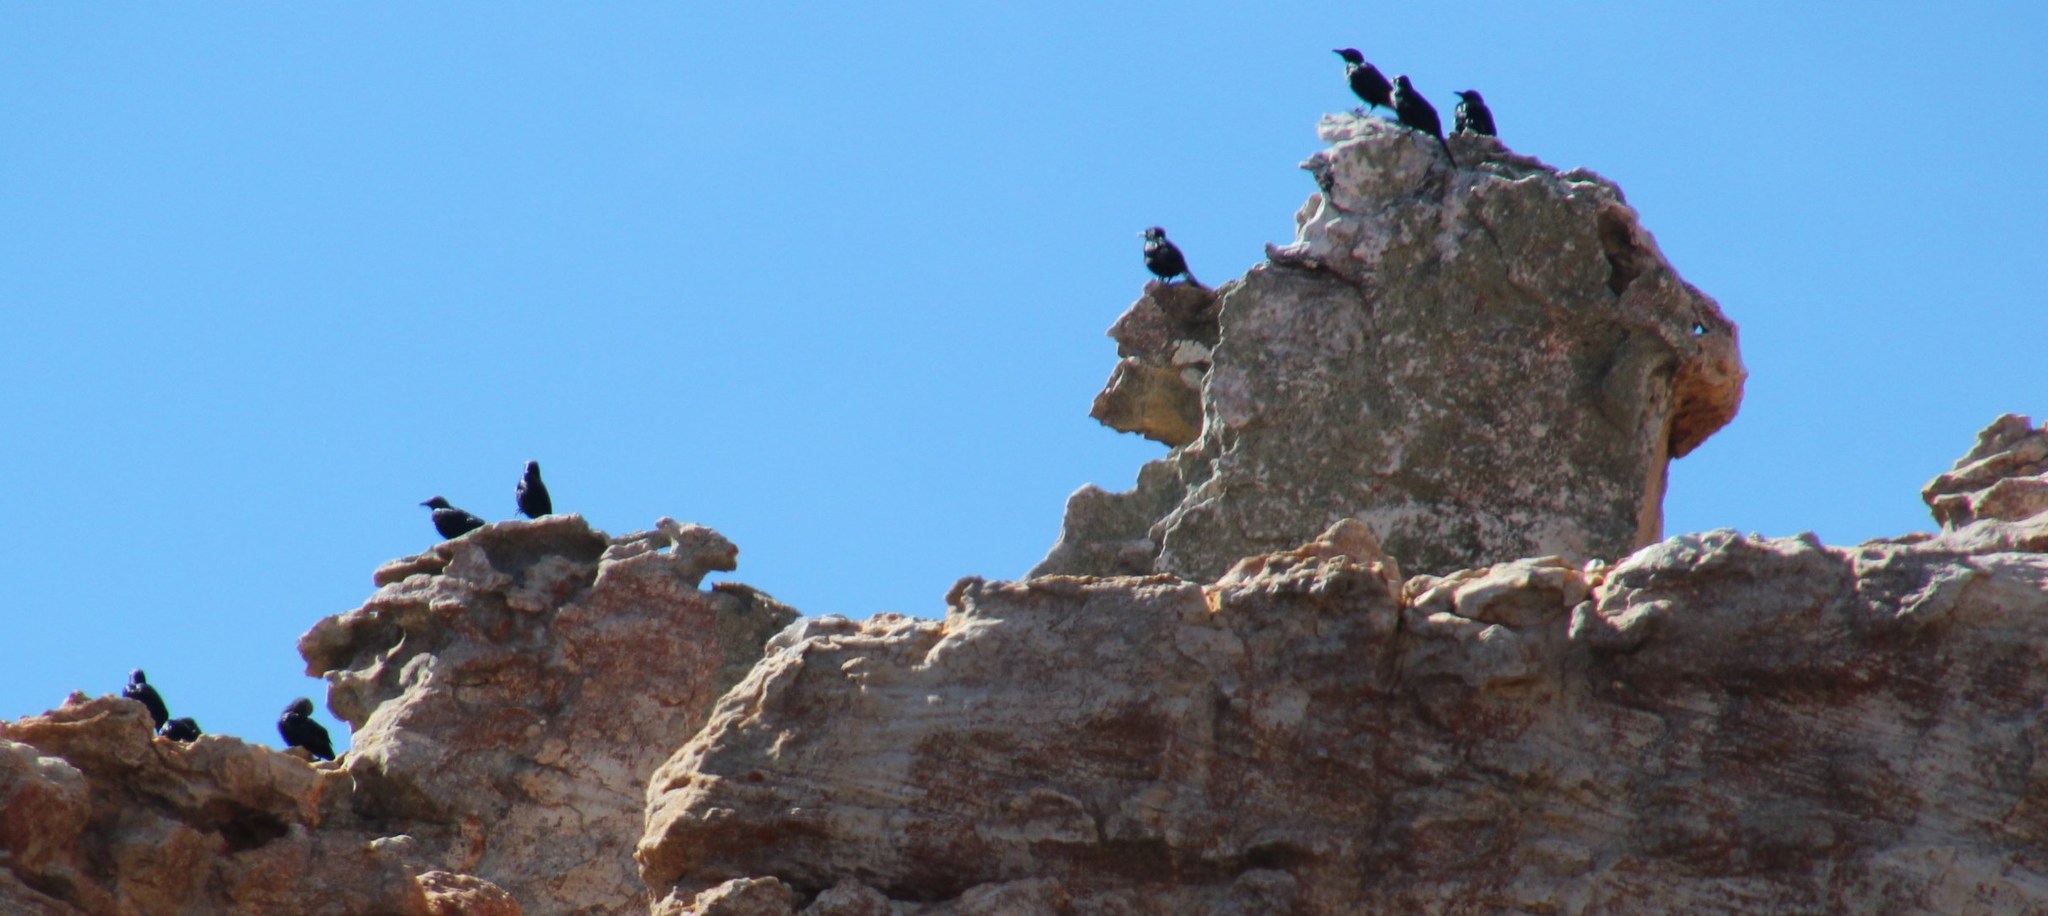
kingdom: Animalia
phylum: Chordata
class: Aves
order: Passeriformes
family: Sturnidae
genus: Onychognathus
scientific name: Onychognathus morio
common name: Red-winged starling
